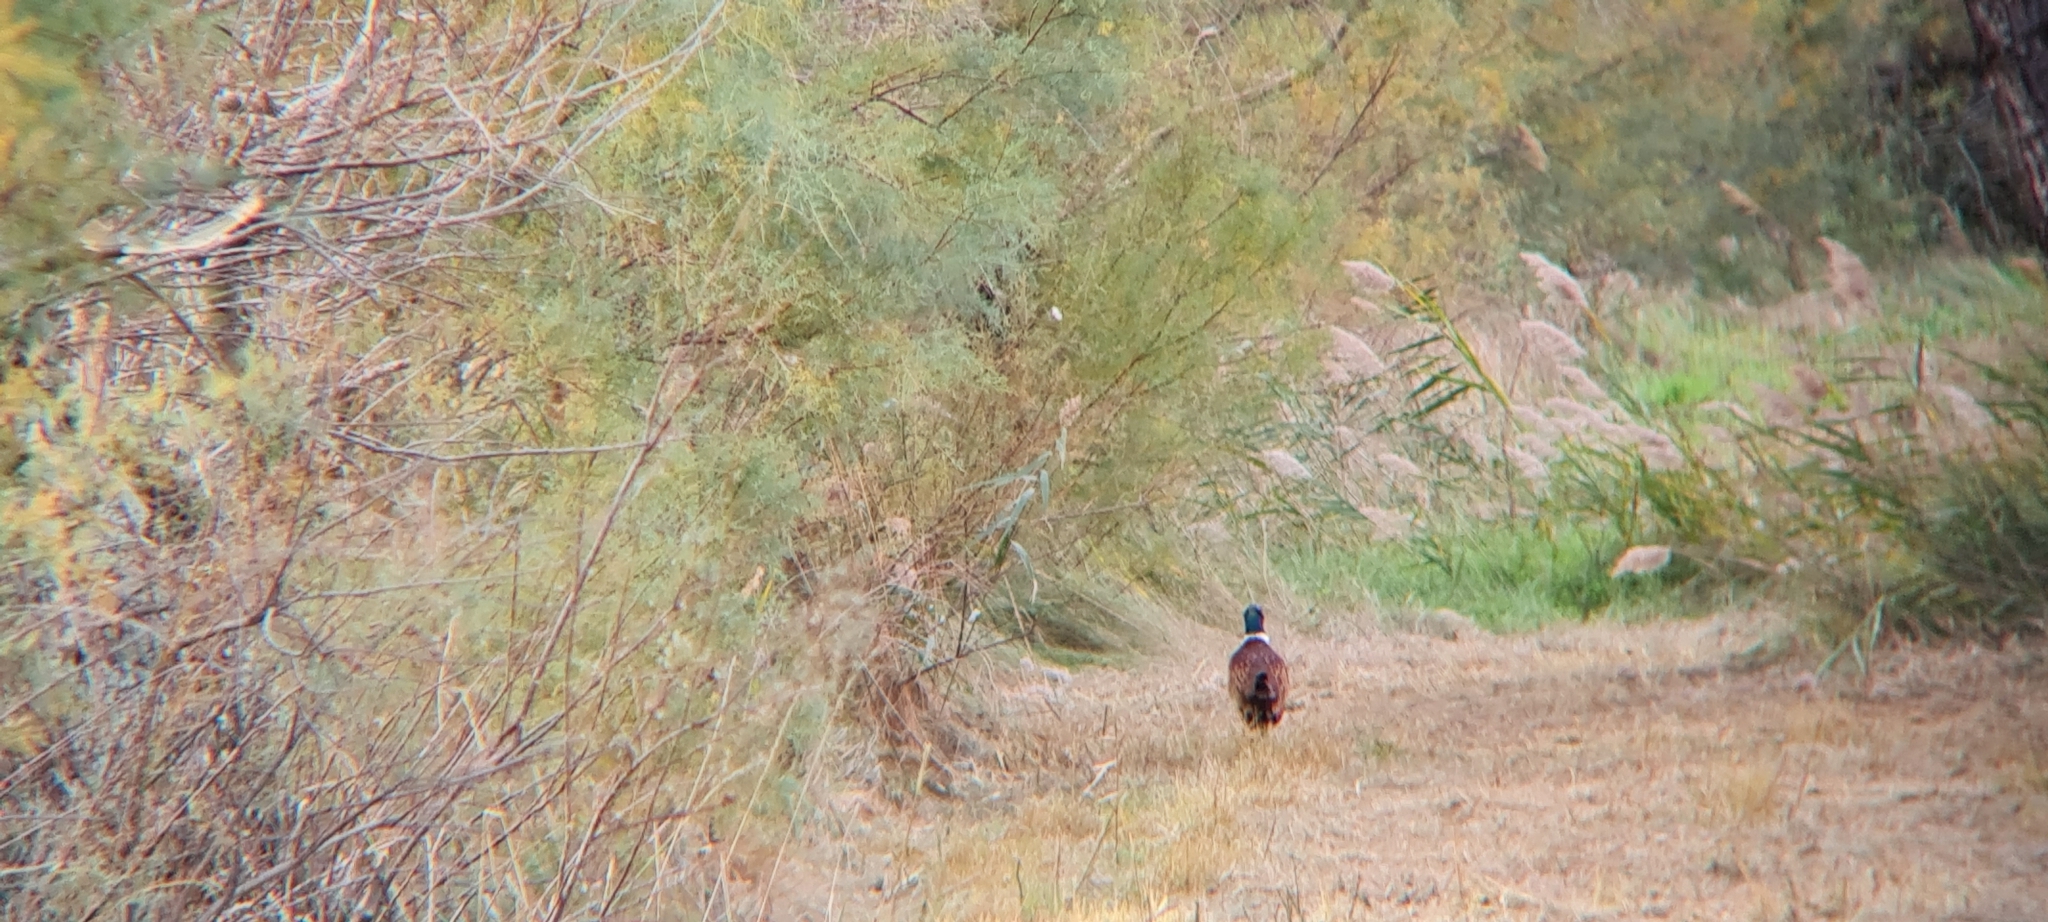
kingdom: Animalia
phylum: Chordata
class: Aves
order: Galliformes
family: Phasianidae
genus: Phasianus
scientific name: Phasianus colchicus
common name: Common pheasant
